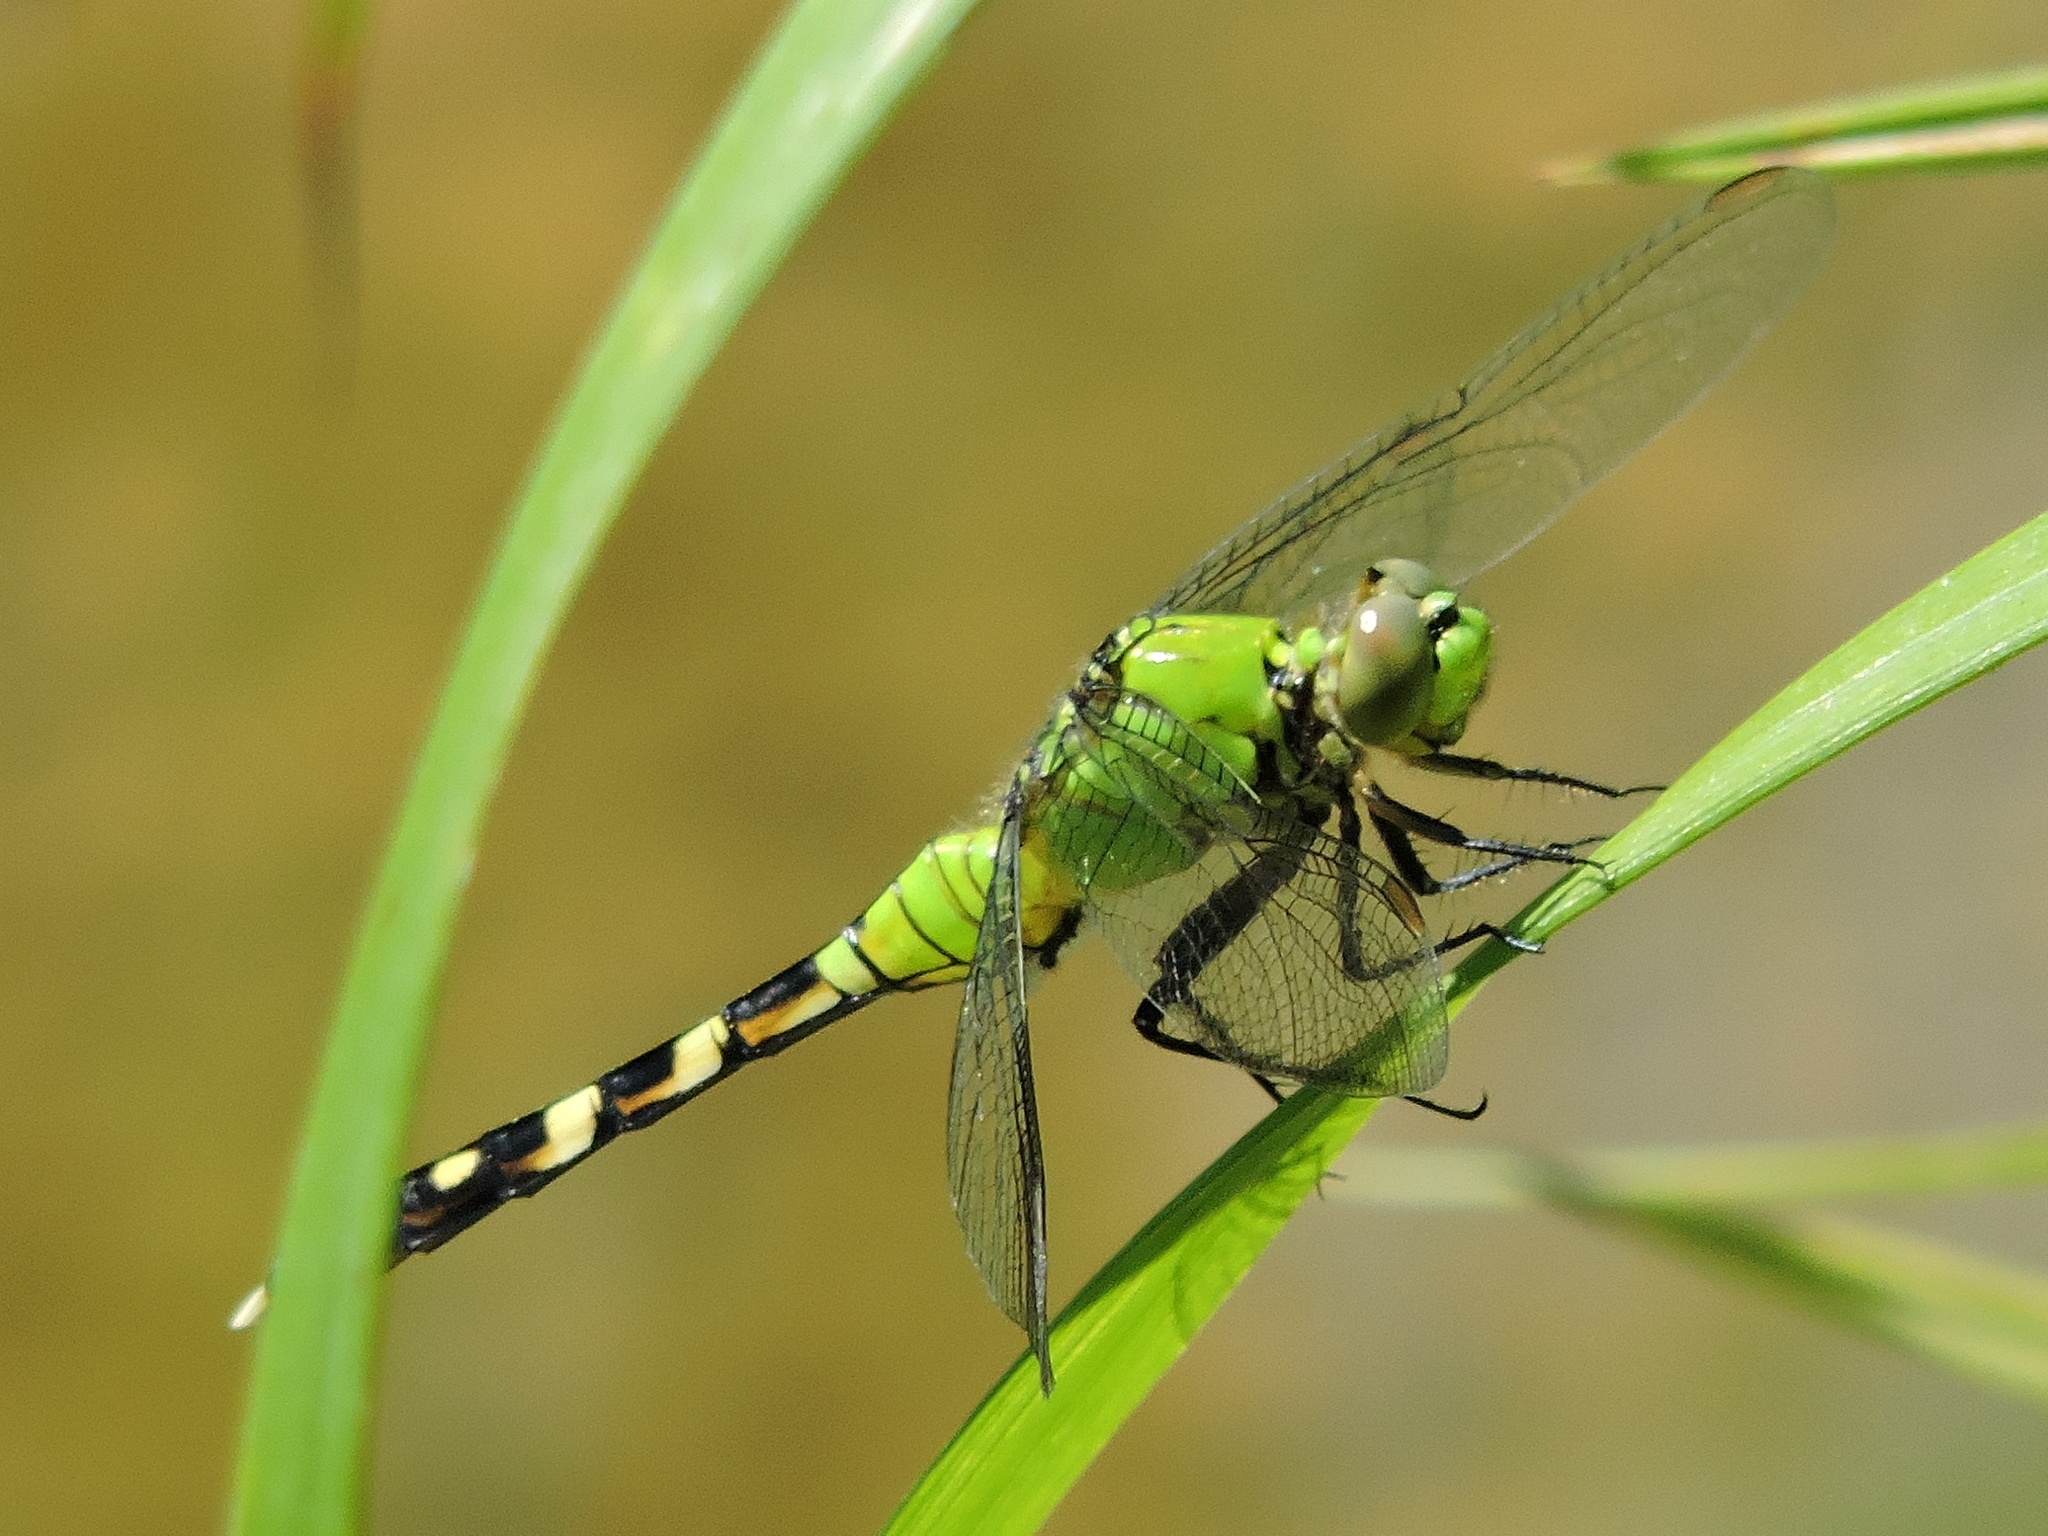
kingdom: Animalia
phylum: Arthropoda
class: Insecta
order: Odonata
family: Libellulidae
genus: Erythemis
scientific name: Erythemis simplicicollis
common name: Eastern pondhawk
